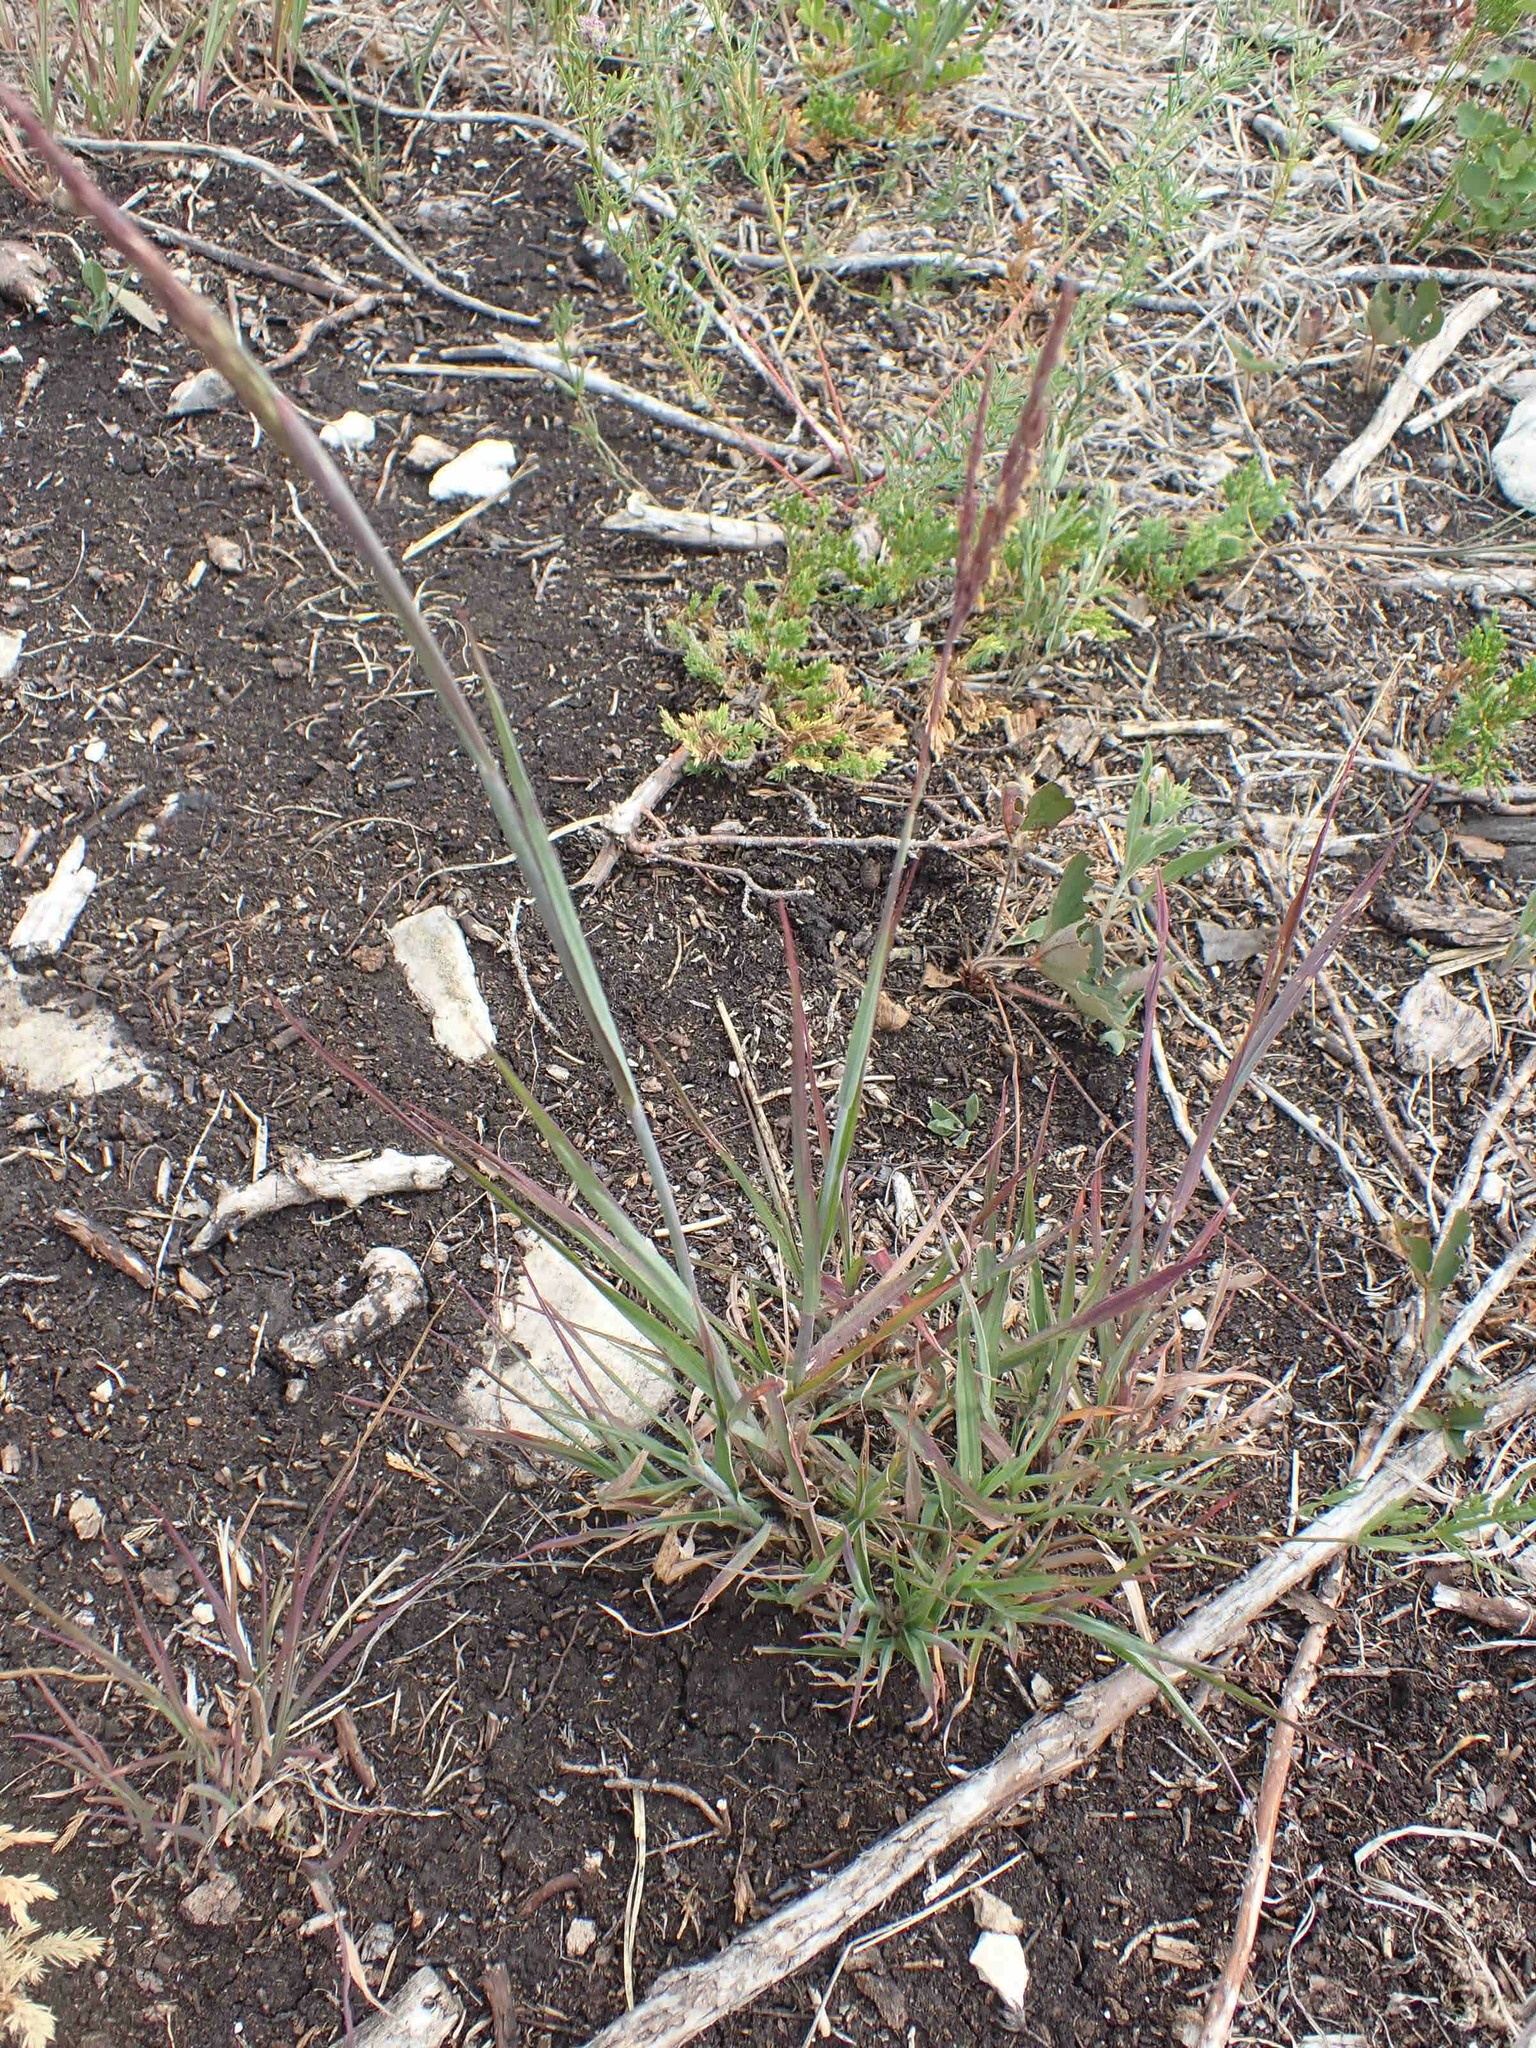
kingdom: Plantae
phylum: Tracheophyta
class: Liliopsida
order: Poales
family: Poaceae
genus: Andropogon
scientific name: Andropogon gerardi
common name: Big bluestem
